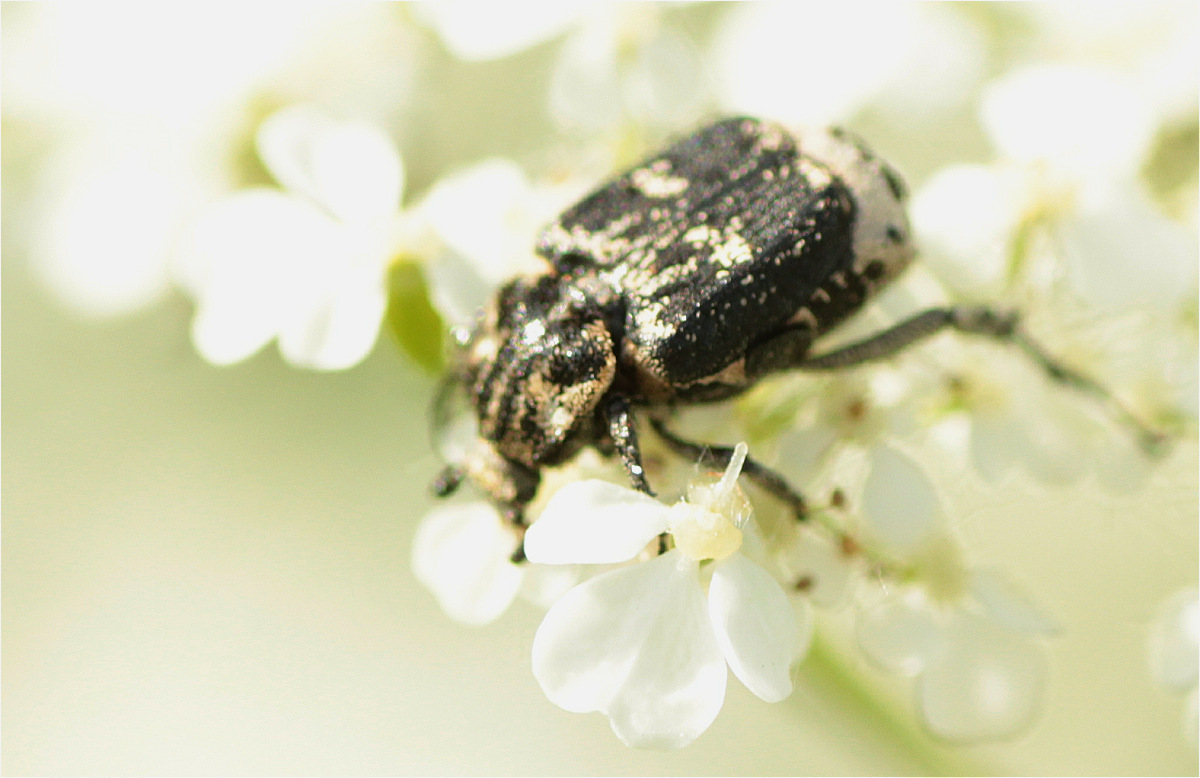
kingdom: Animalia
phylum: Arthropoda
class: Insecta
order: Coleoptera
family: Scarabaeidae
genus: Valgus
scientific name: Valgus hemipterus
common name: Bug flower chafer
